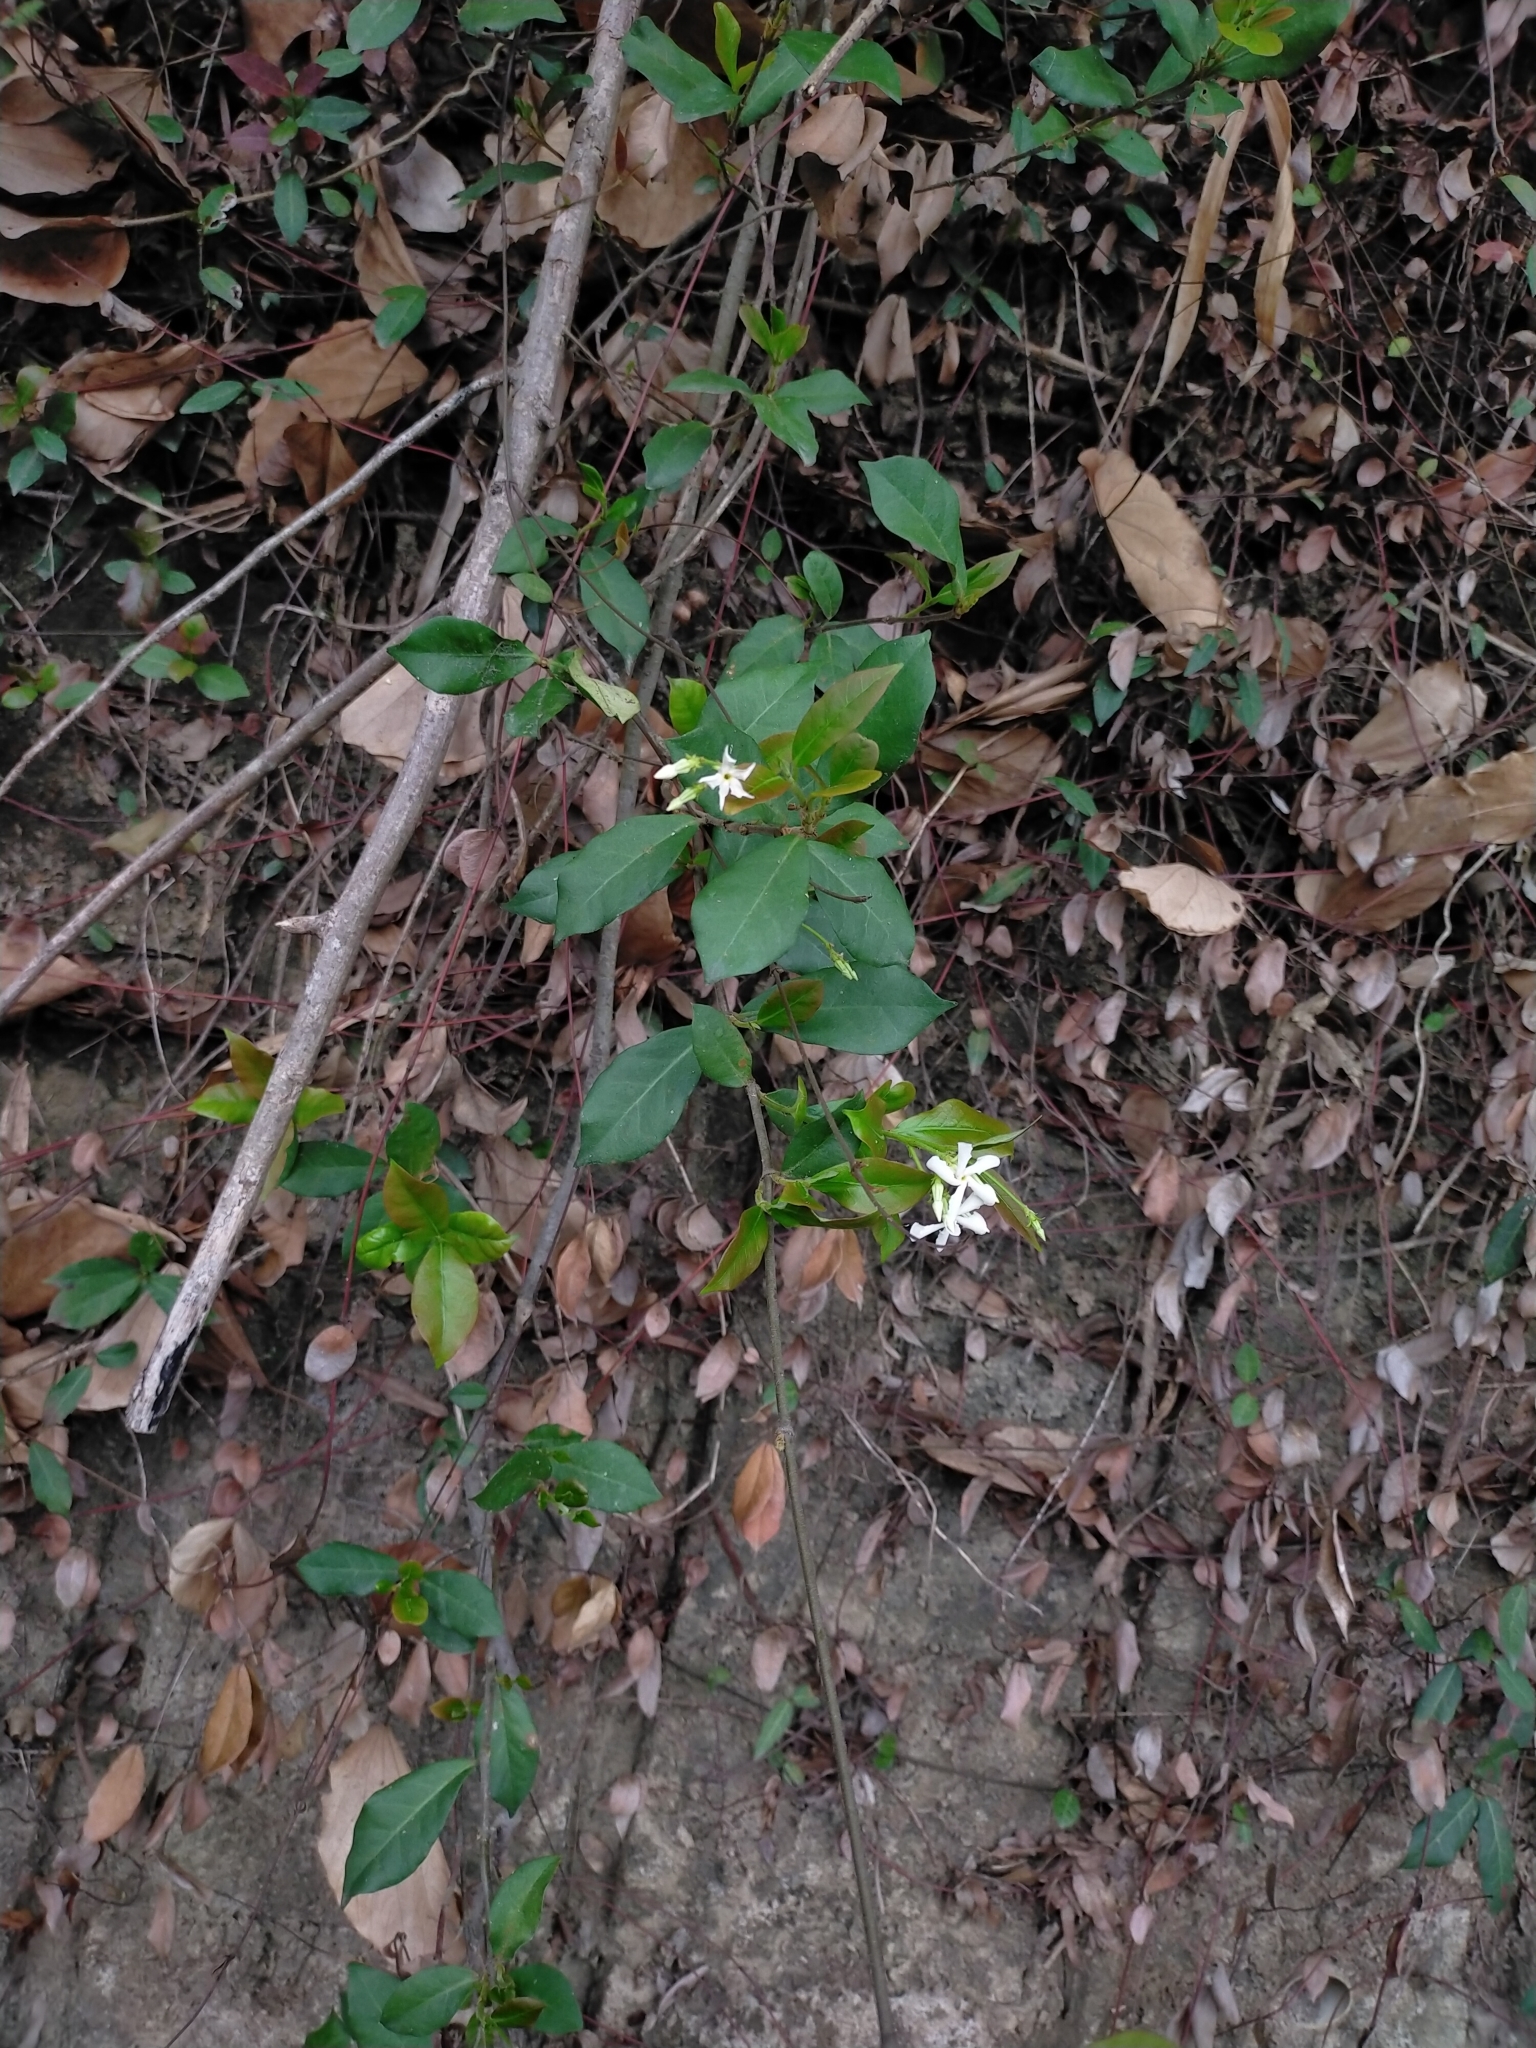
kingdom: Plantae
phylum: Tracheophyta
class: Magnoliopsida
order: Gentianales
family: Apocynaceae
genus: Trachelospermum
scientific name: Trachelospermum jasminoides
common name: Confederate jasmine
